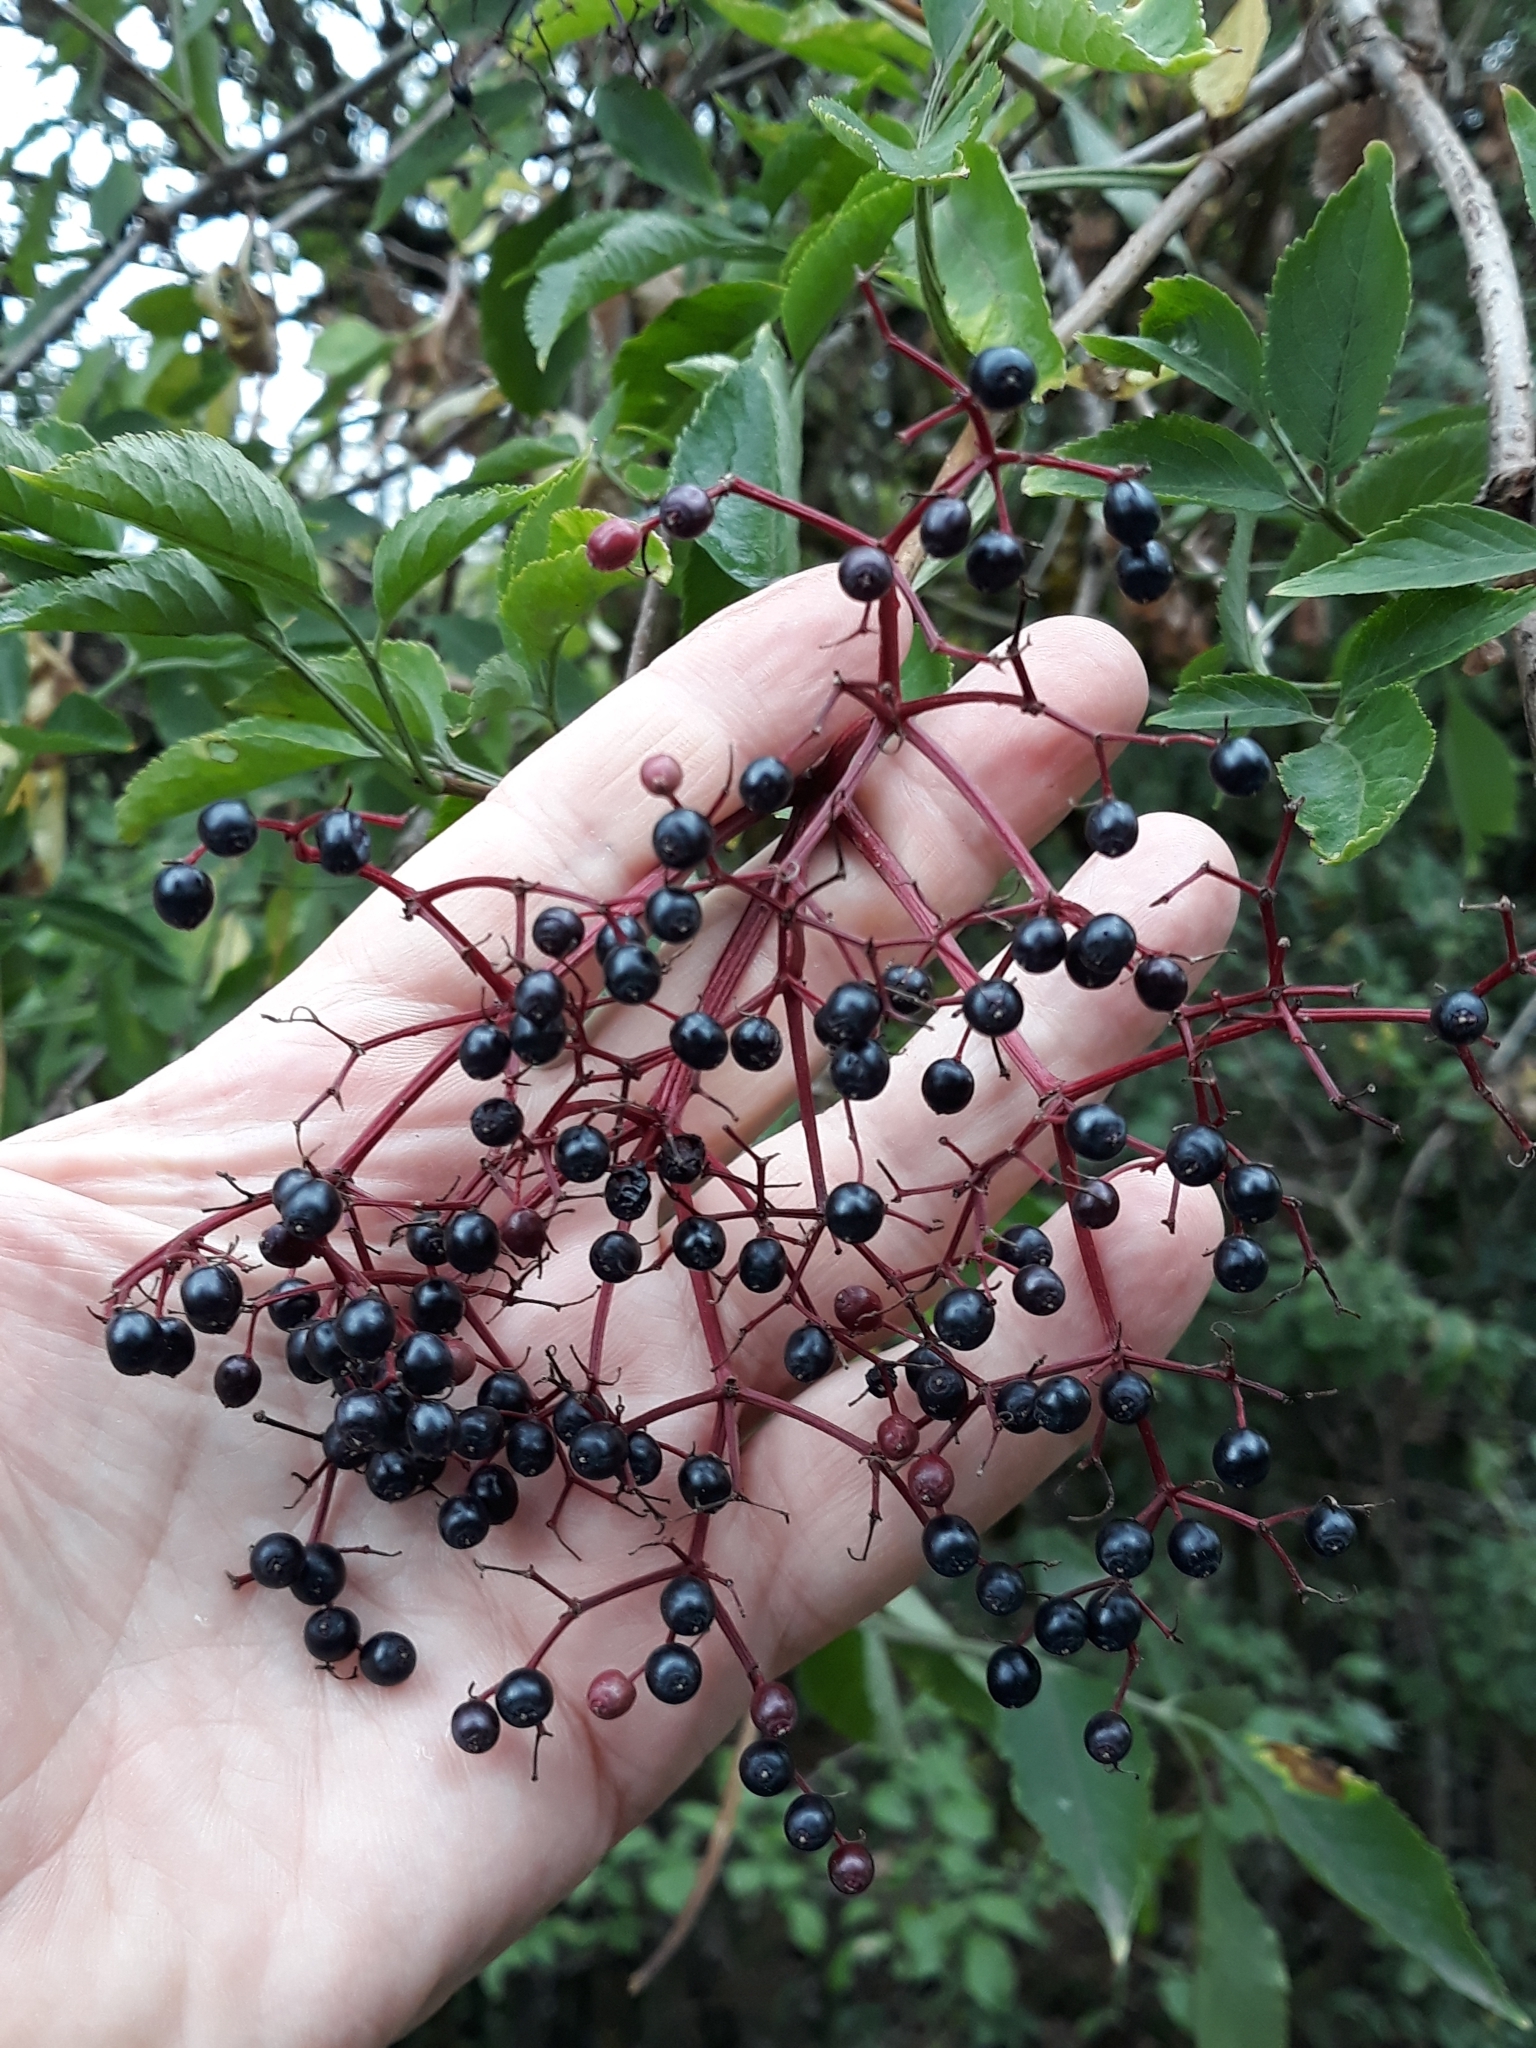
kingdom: Plantae
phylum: Tracheophyta
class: Magnoliopsida
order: Dipsacales
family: Viburnaceae
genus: Sambucus
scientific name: Sambucus nigra
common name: Elder
